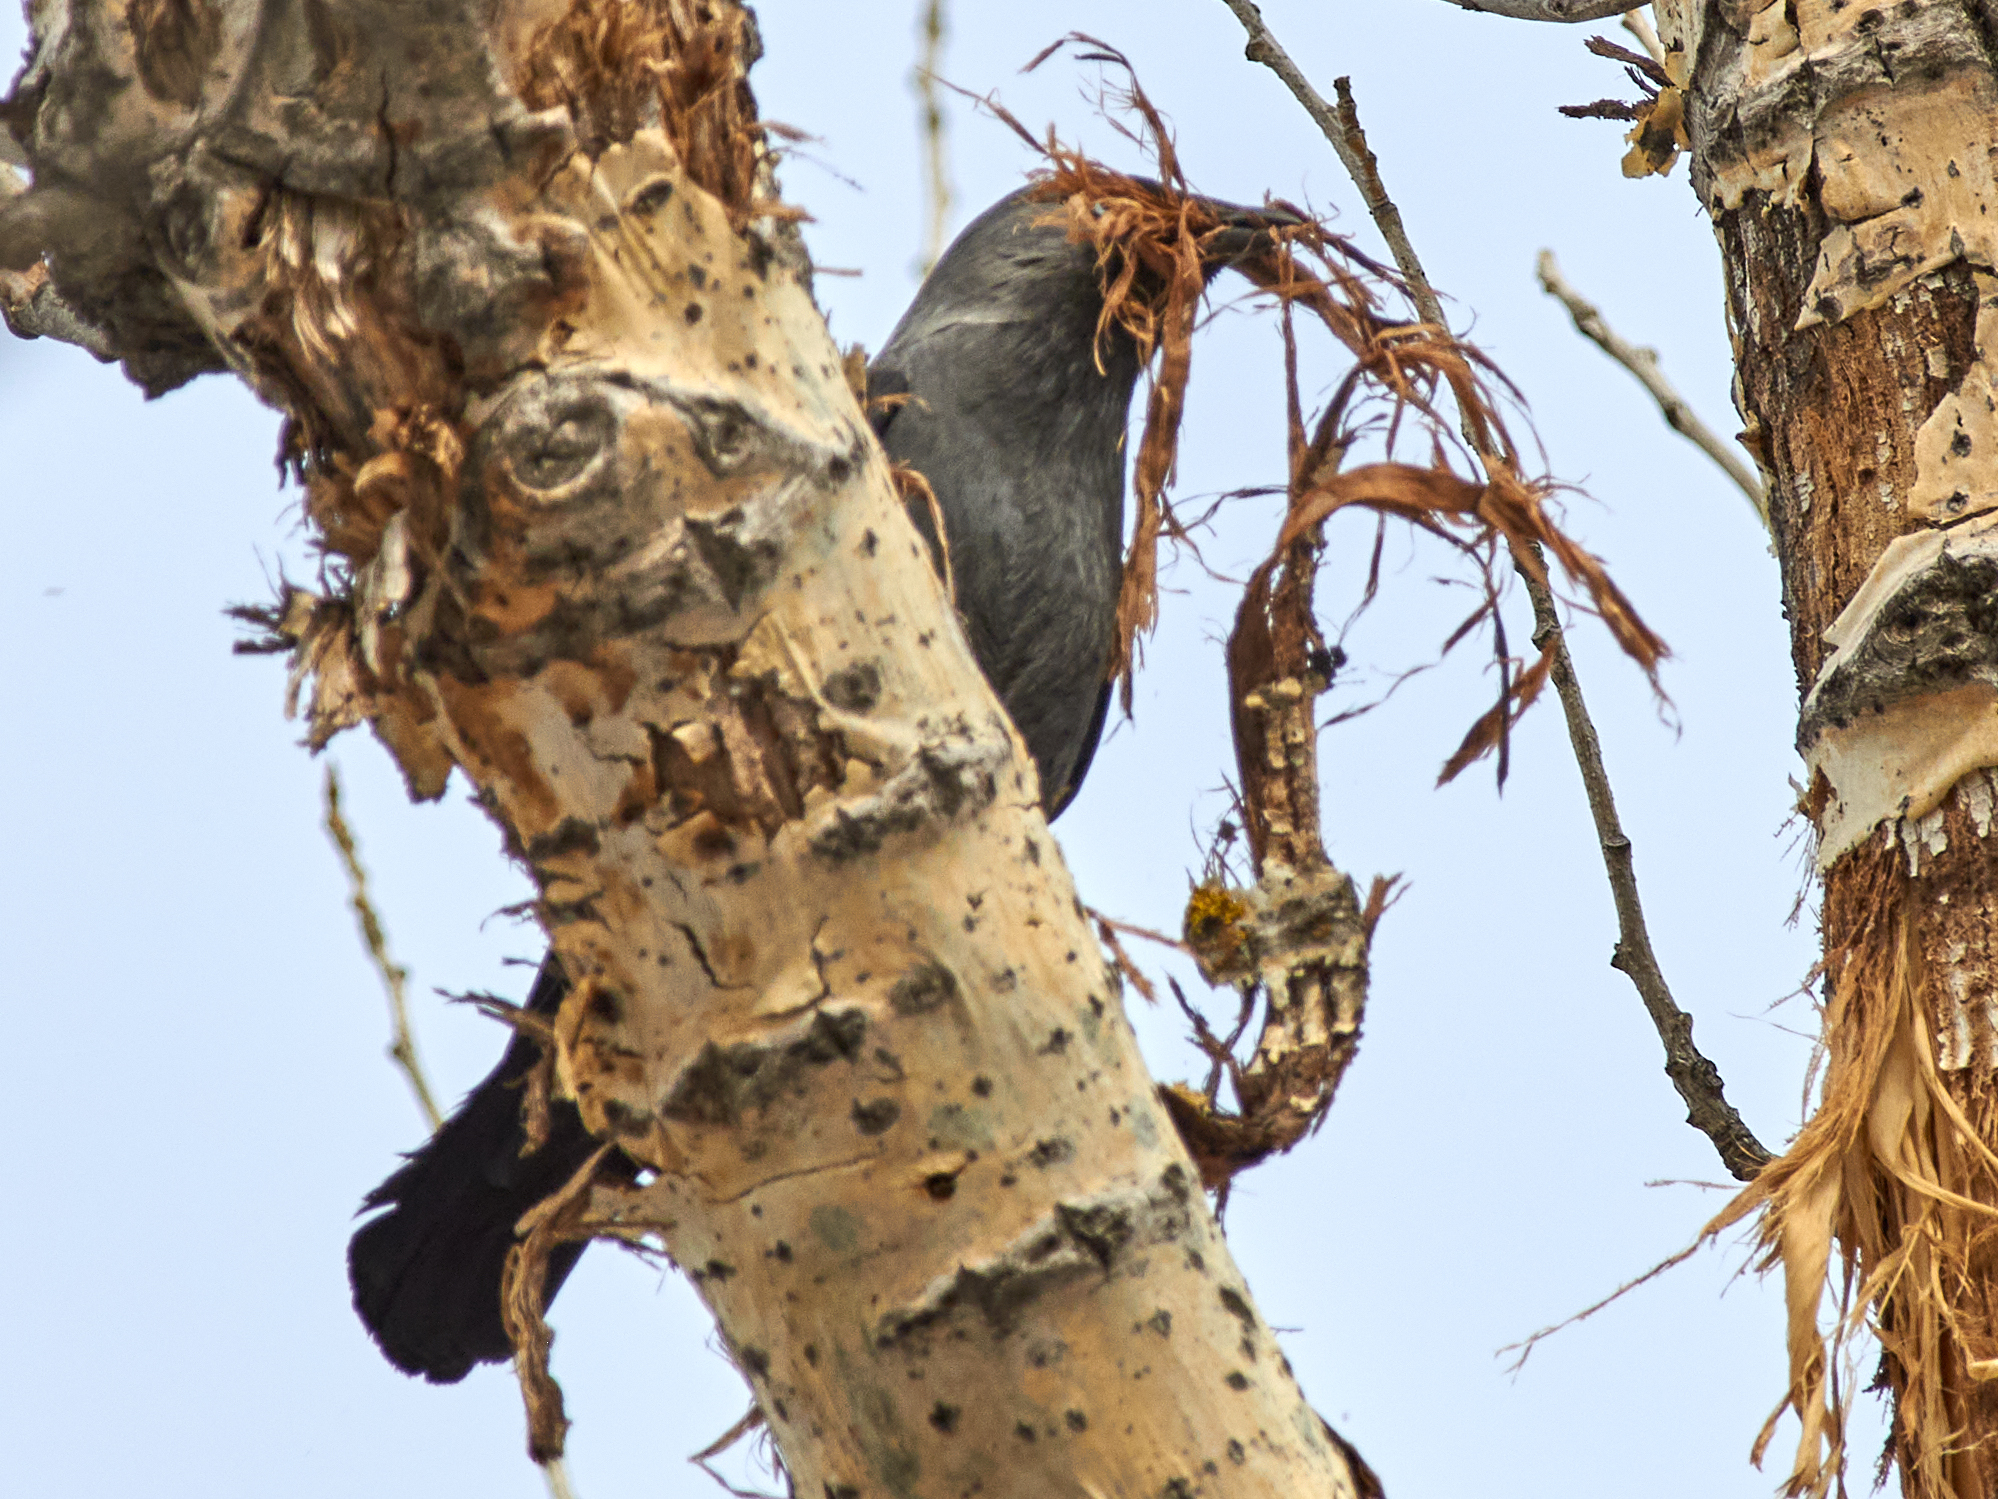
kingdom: Animalia
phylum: Chordata
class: Aves
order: Passeriformes
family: Corvidae
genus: Coloeus
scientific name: Coloeus monedula
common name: Western jackdaw
